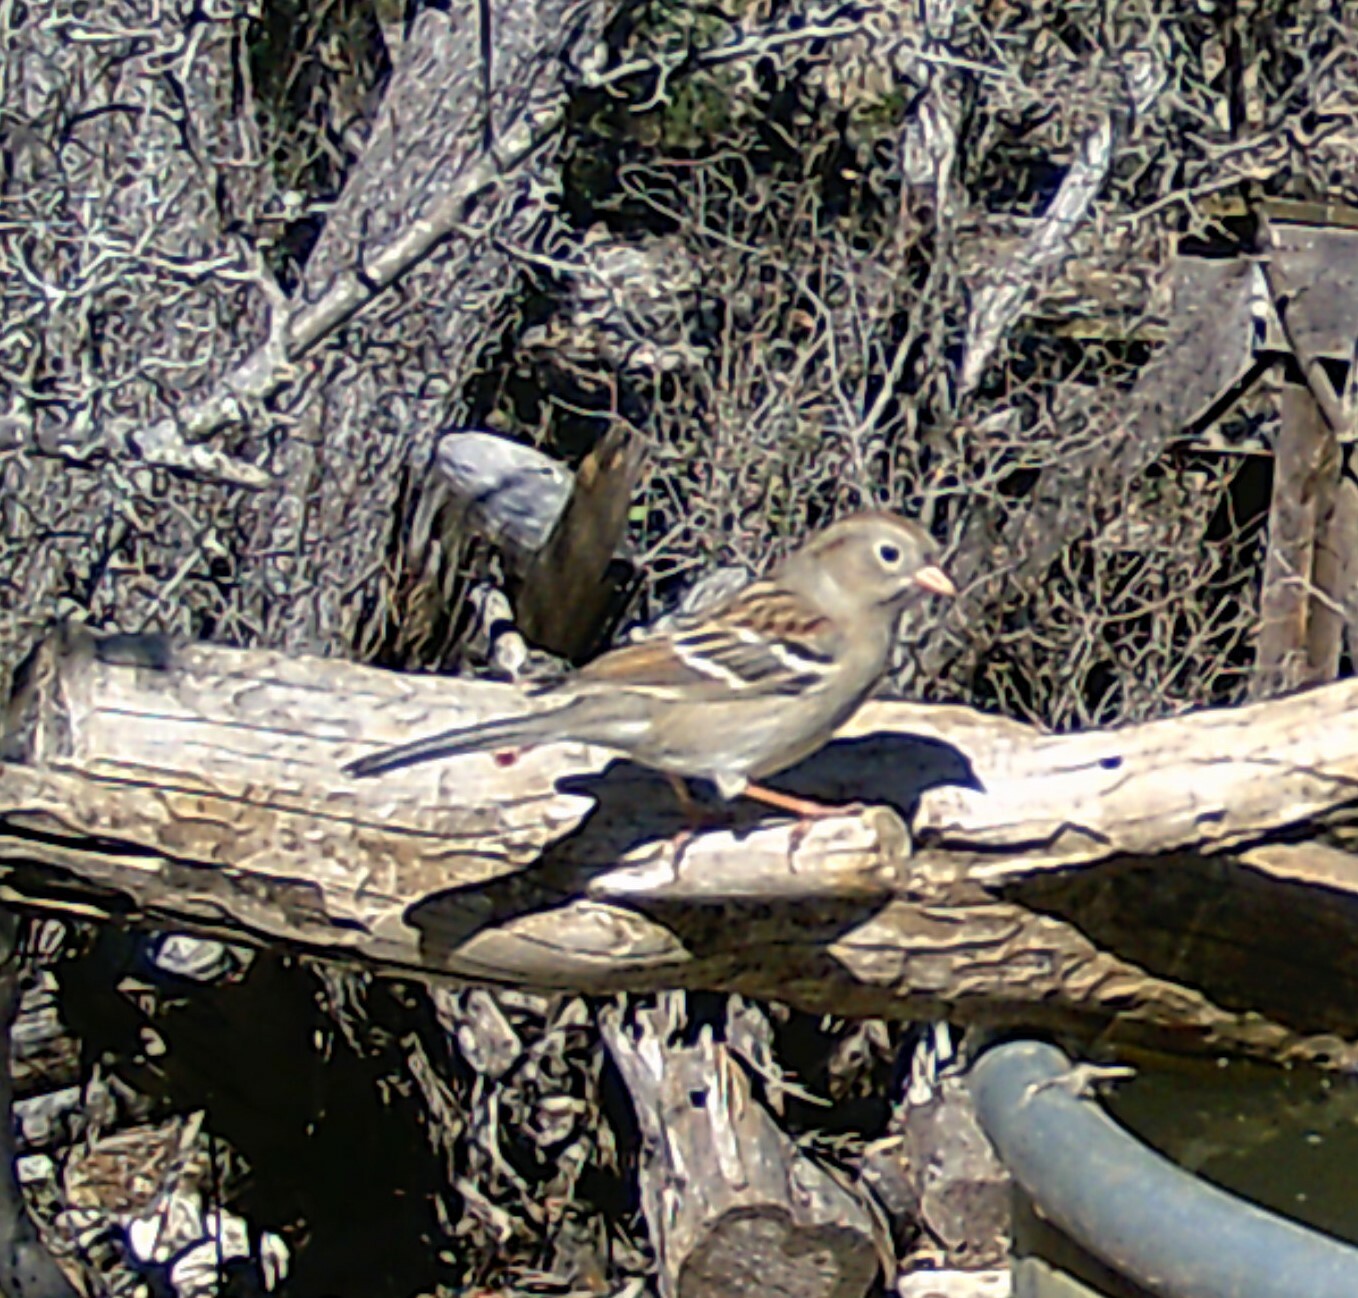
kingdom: Animalia
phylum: Chordata
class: Aves
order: Passeriformes
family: Passerellidae
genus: Spizella
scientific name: Spizella pusilla
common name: Field sparrow
